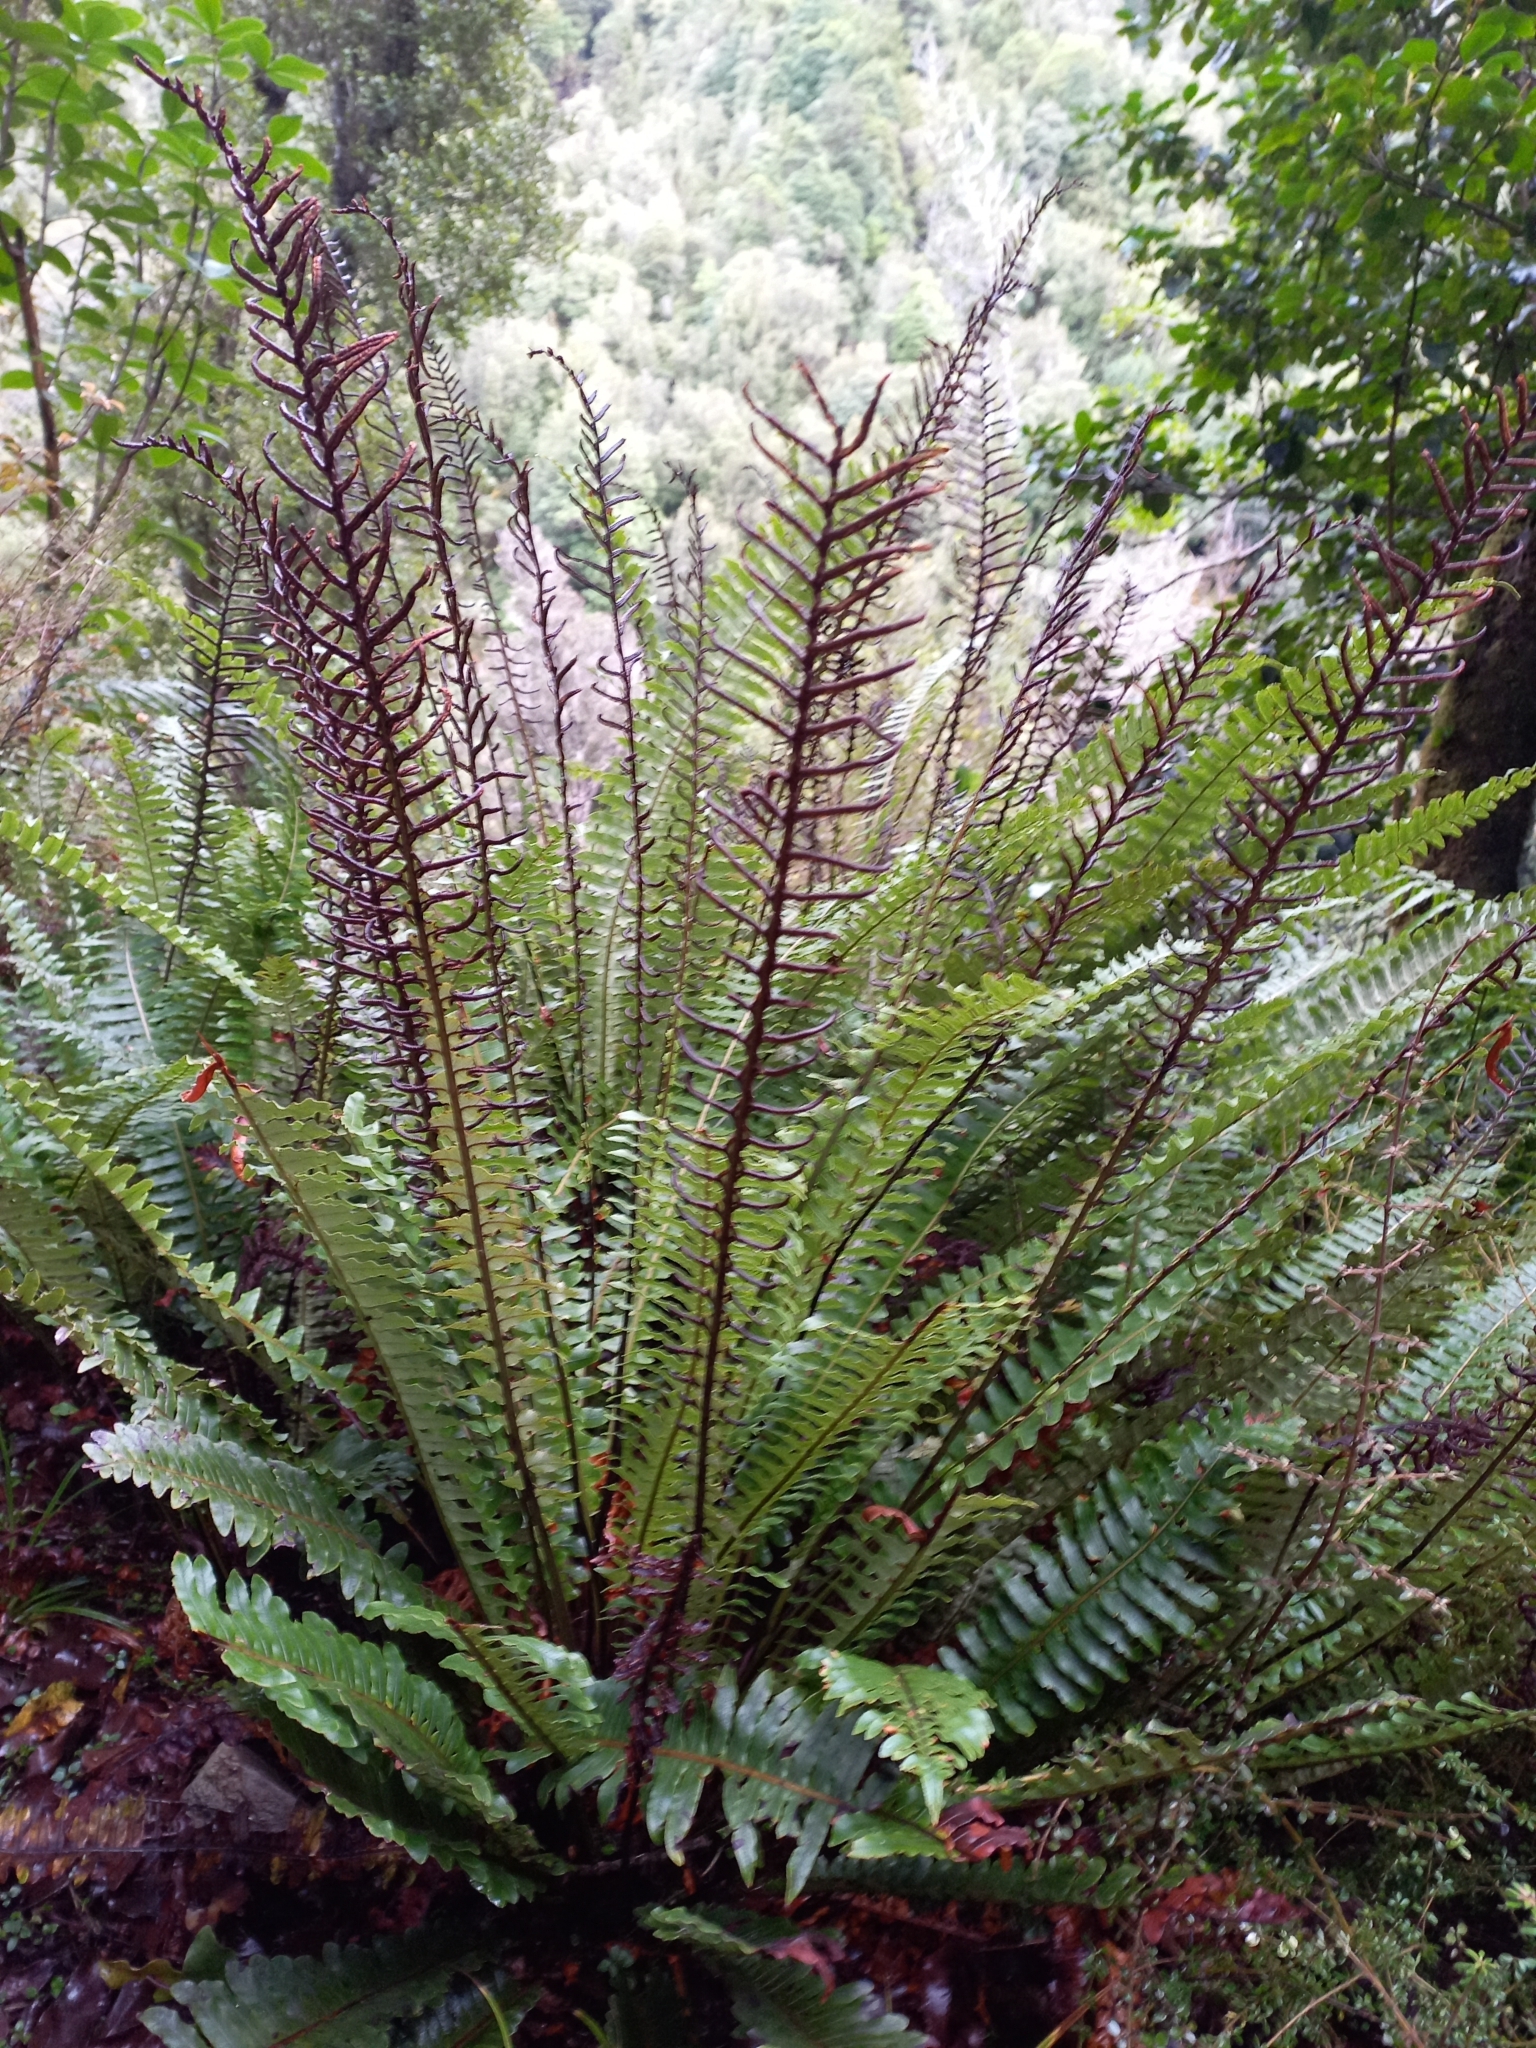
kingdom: Plantae
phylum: Tracheophyta
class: Polypodiopsida
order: Polypodiales
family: Blechnaceae
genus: Lomaria
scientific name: Lomaria discolor
